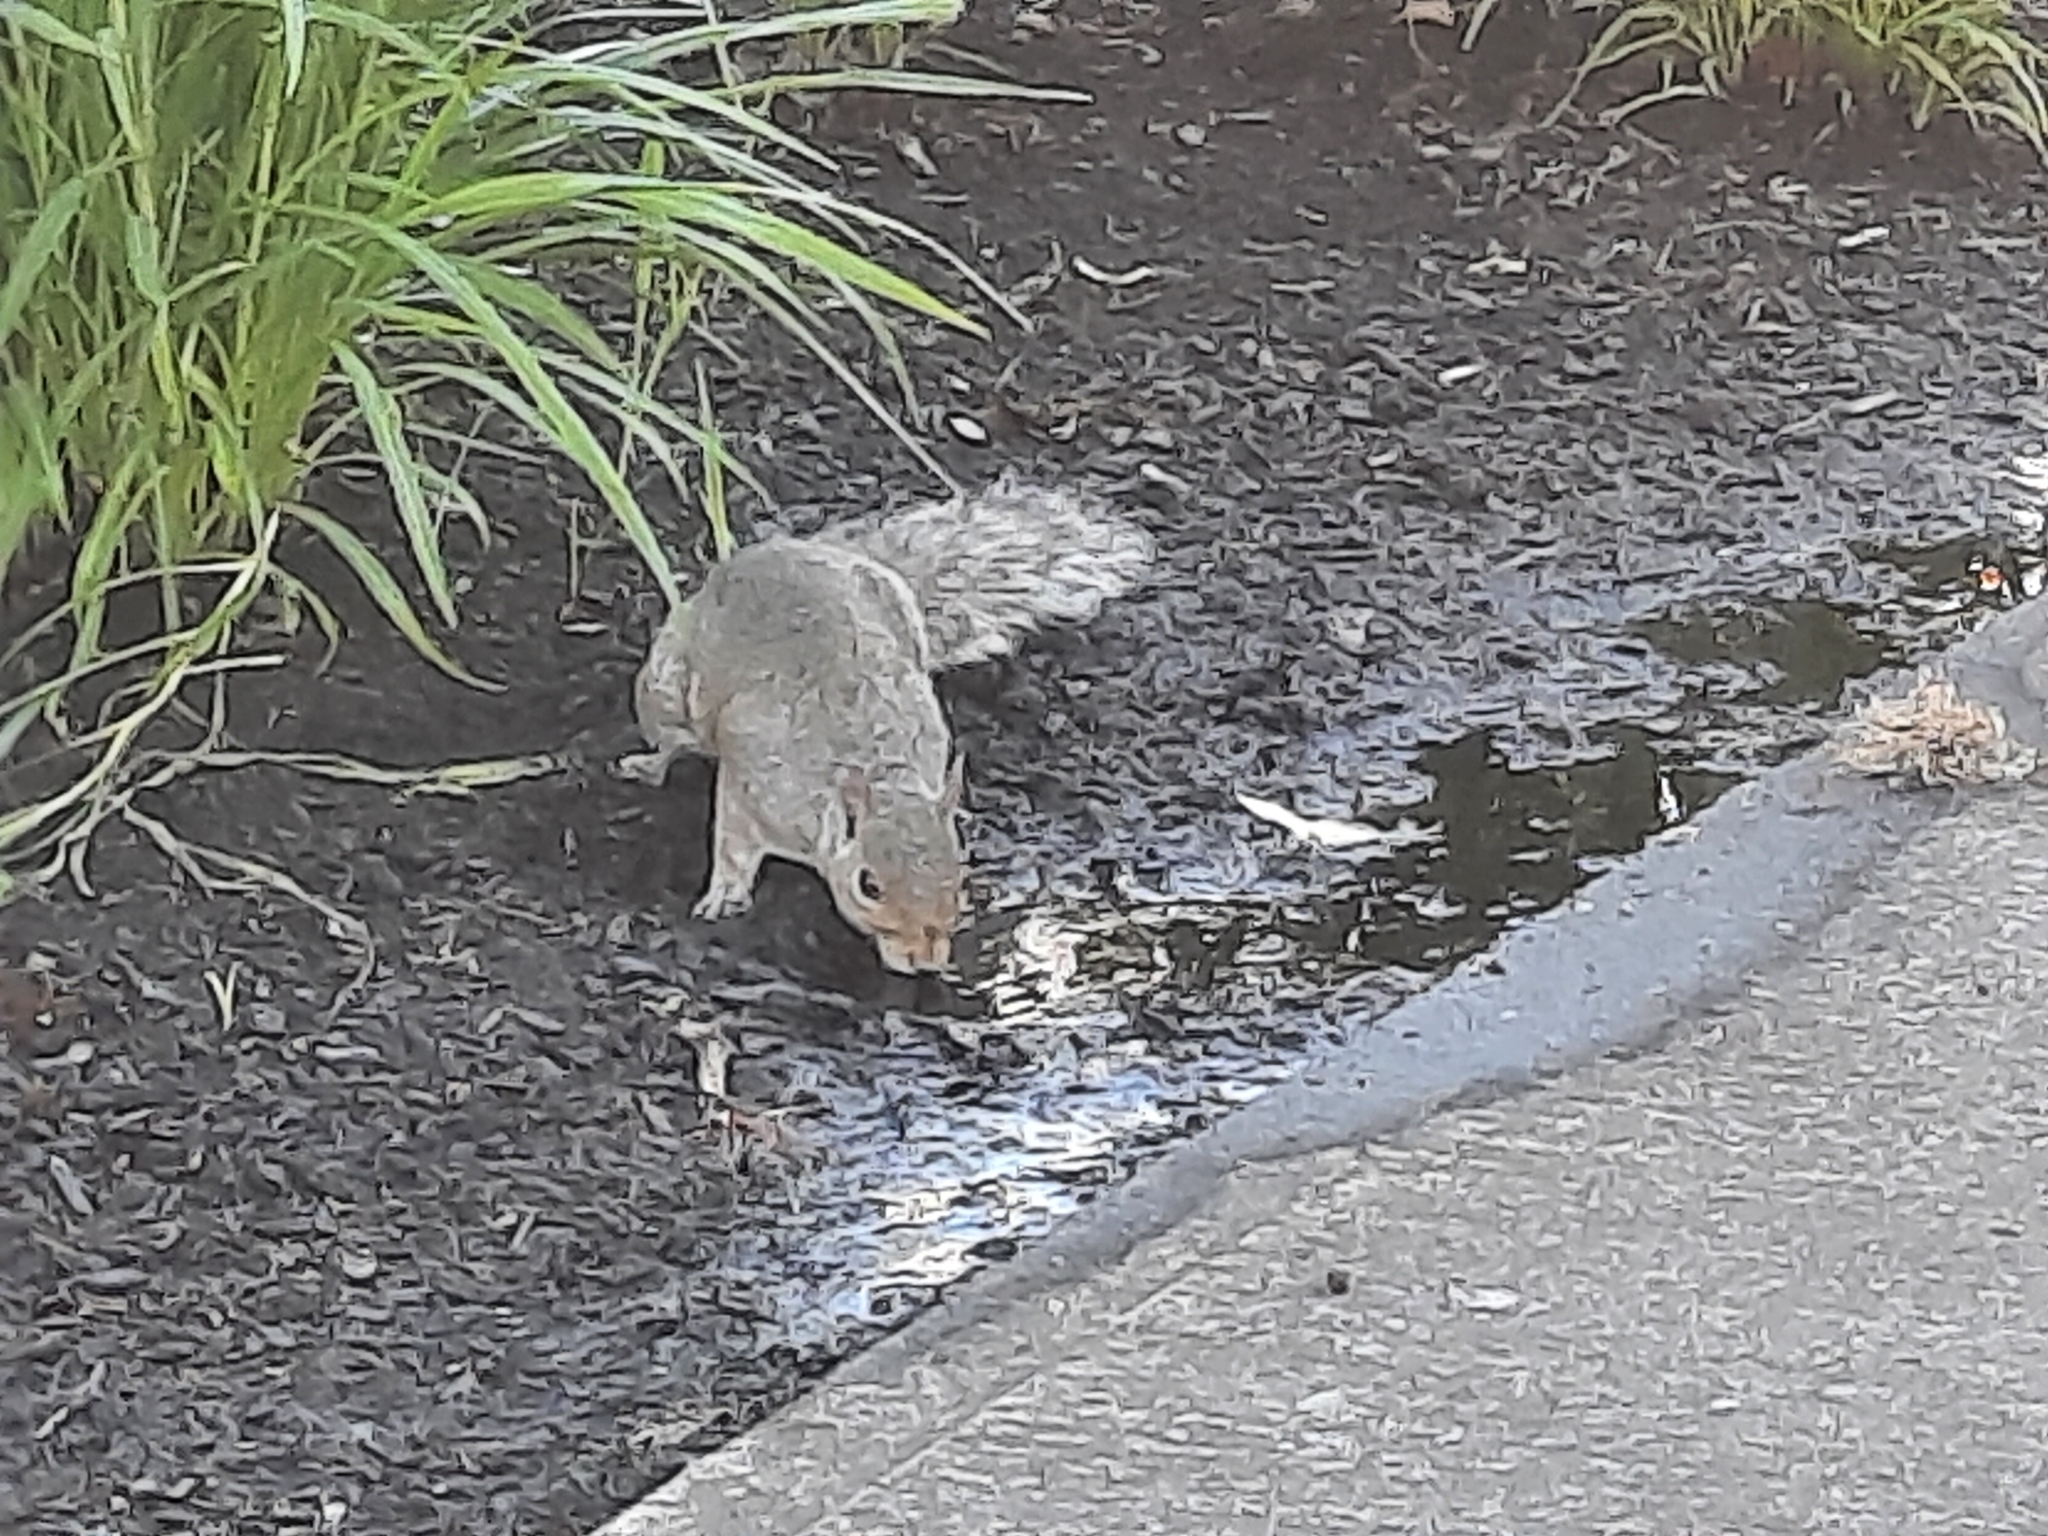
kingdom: Animalia
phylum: Chordata
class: Mammalia
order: Rodentia
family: Sciuridae
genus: Sciurus
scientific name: Sciurus carolinensis
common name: Eastern gray squirrel
